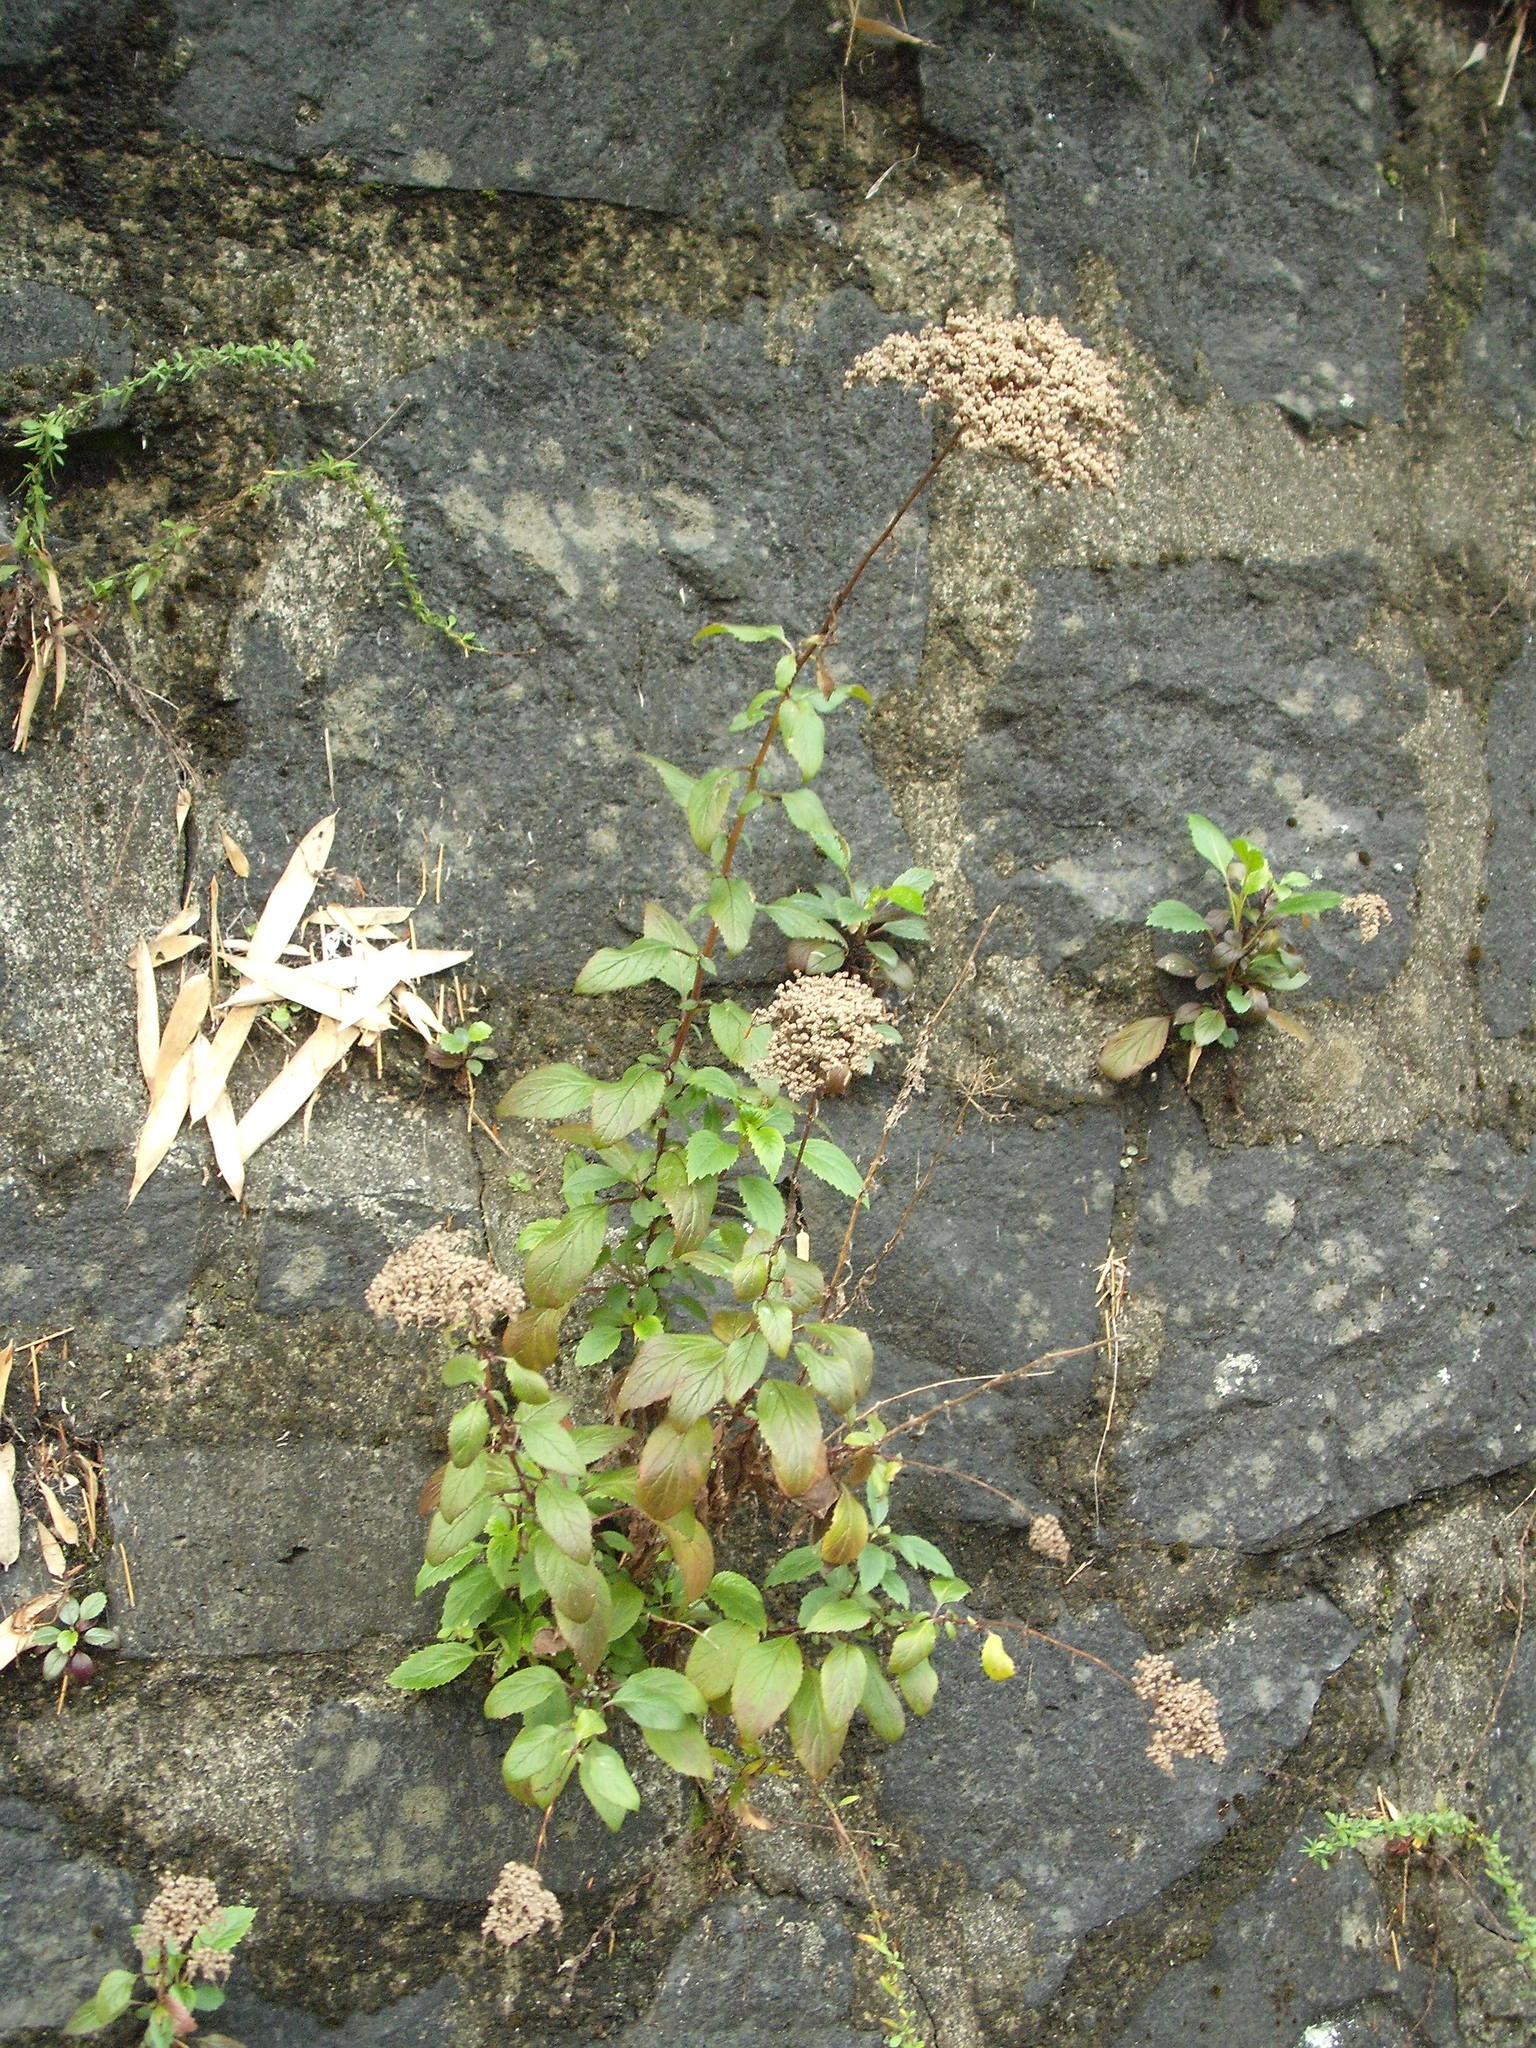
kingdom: Plantae
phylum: Tracheophyta
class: Magnoliopsida
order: Asterales
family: Campanulaceae
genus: Trachelium
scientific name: Trachelium caeruleum
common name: Throatwort
